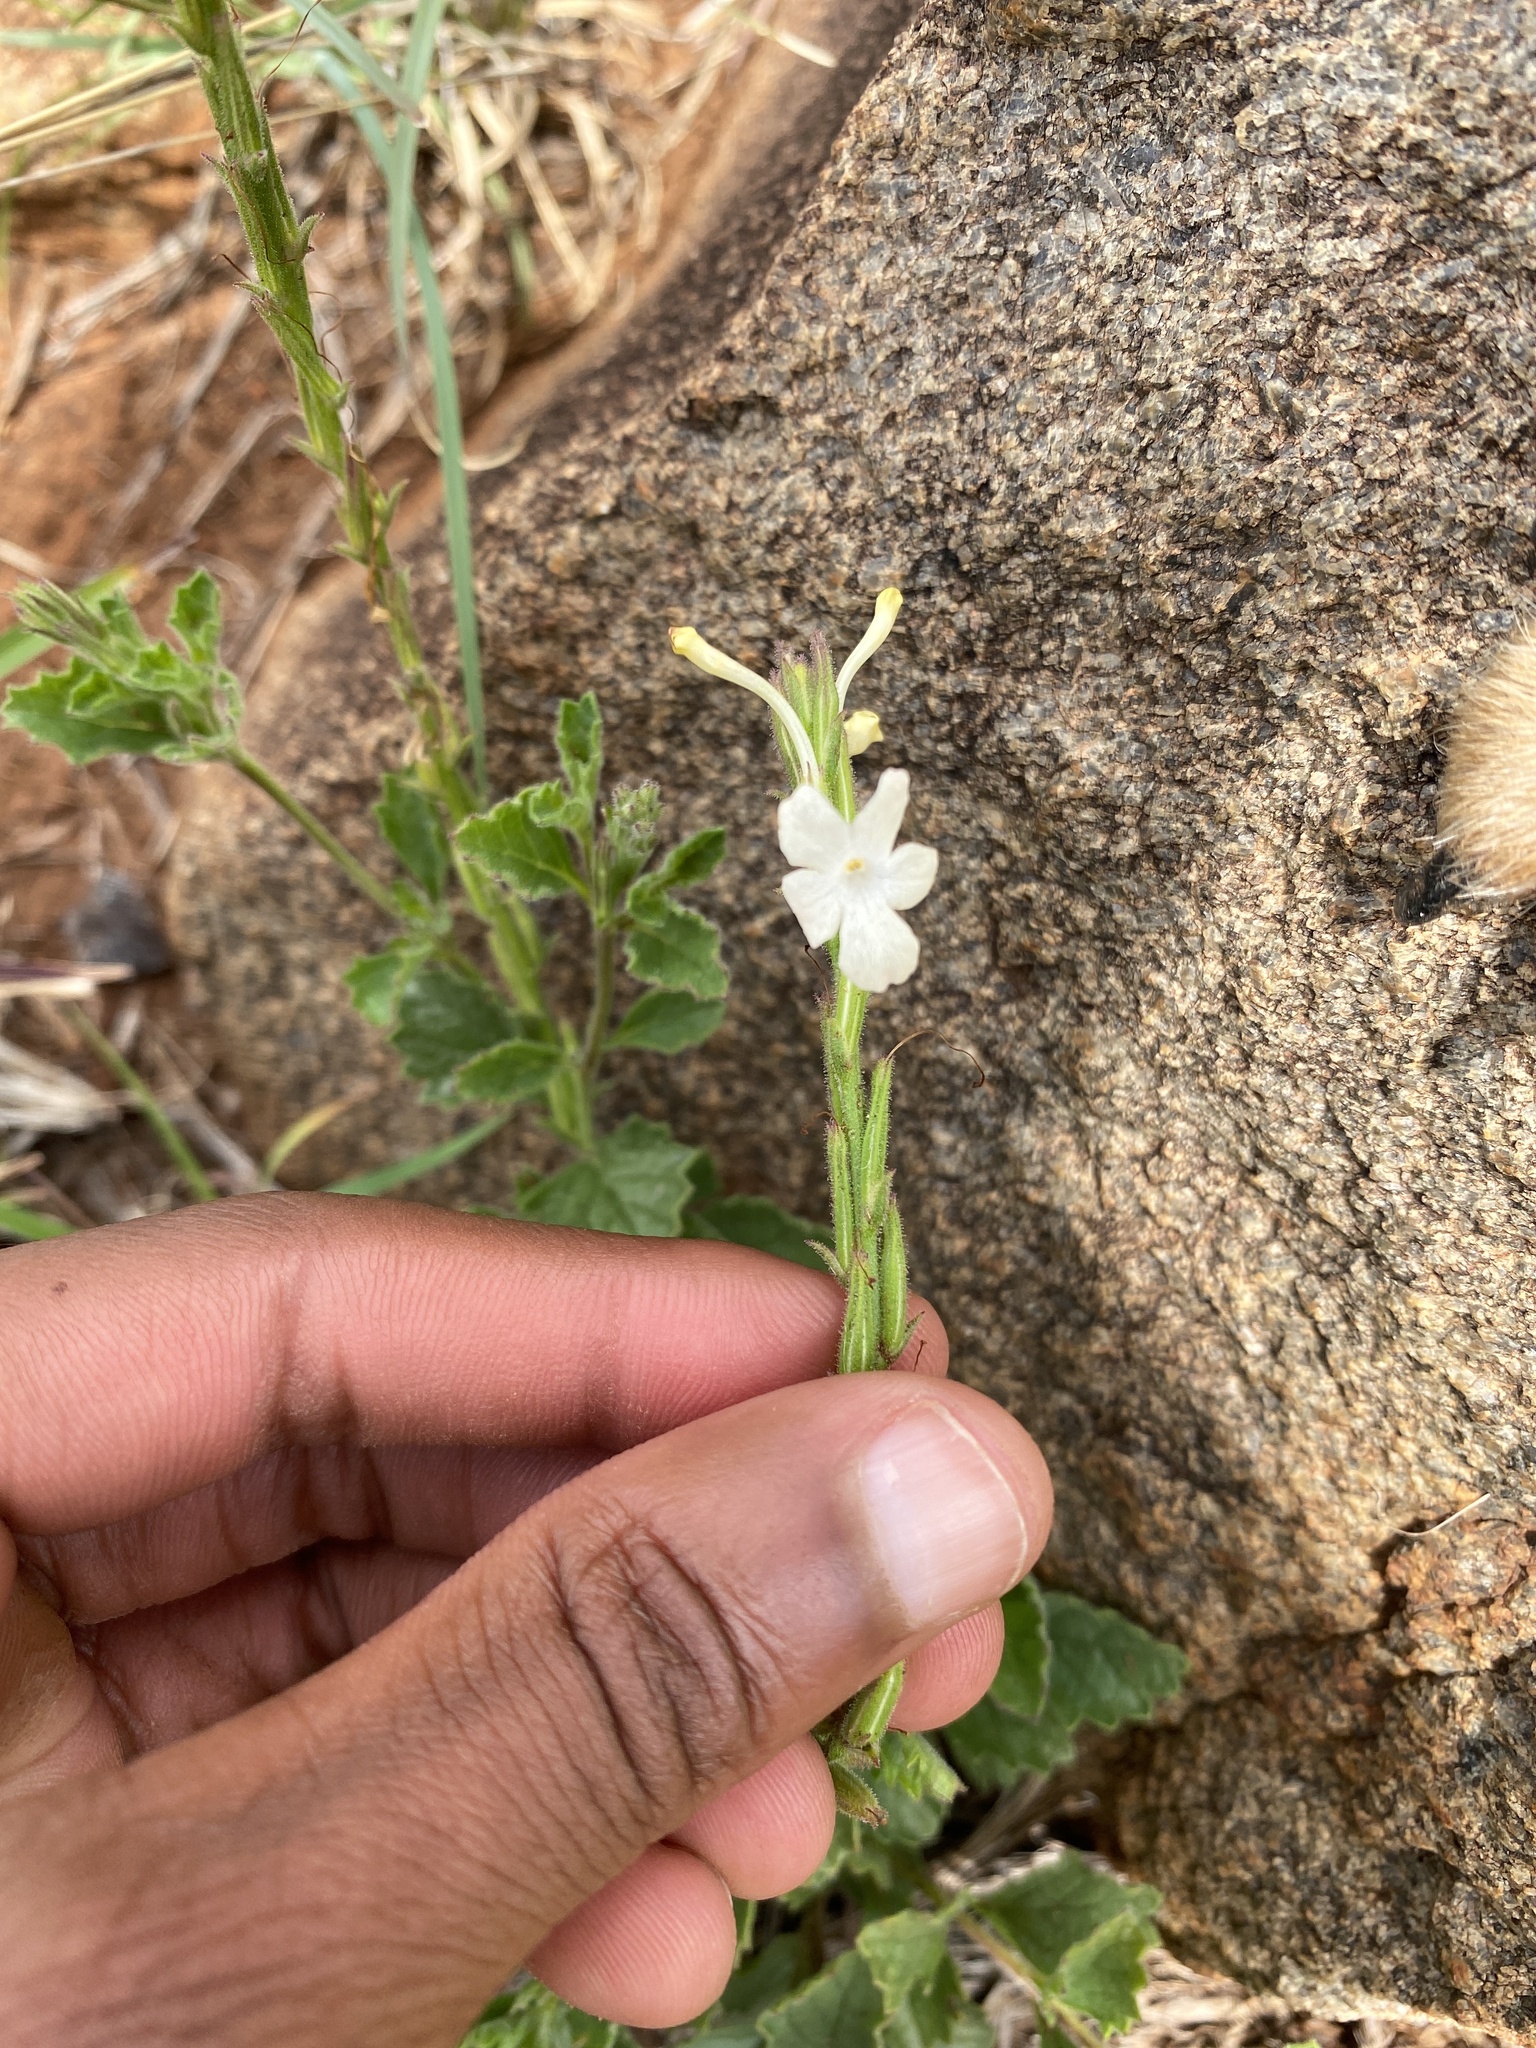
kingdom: Plantae
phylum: Tracheophyta
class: Magnoliopsida
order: Lamiales
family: Verbenaceae
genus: Chascanum
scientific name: Chascanum hederaceum
